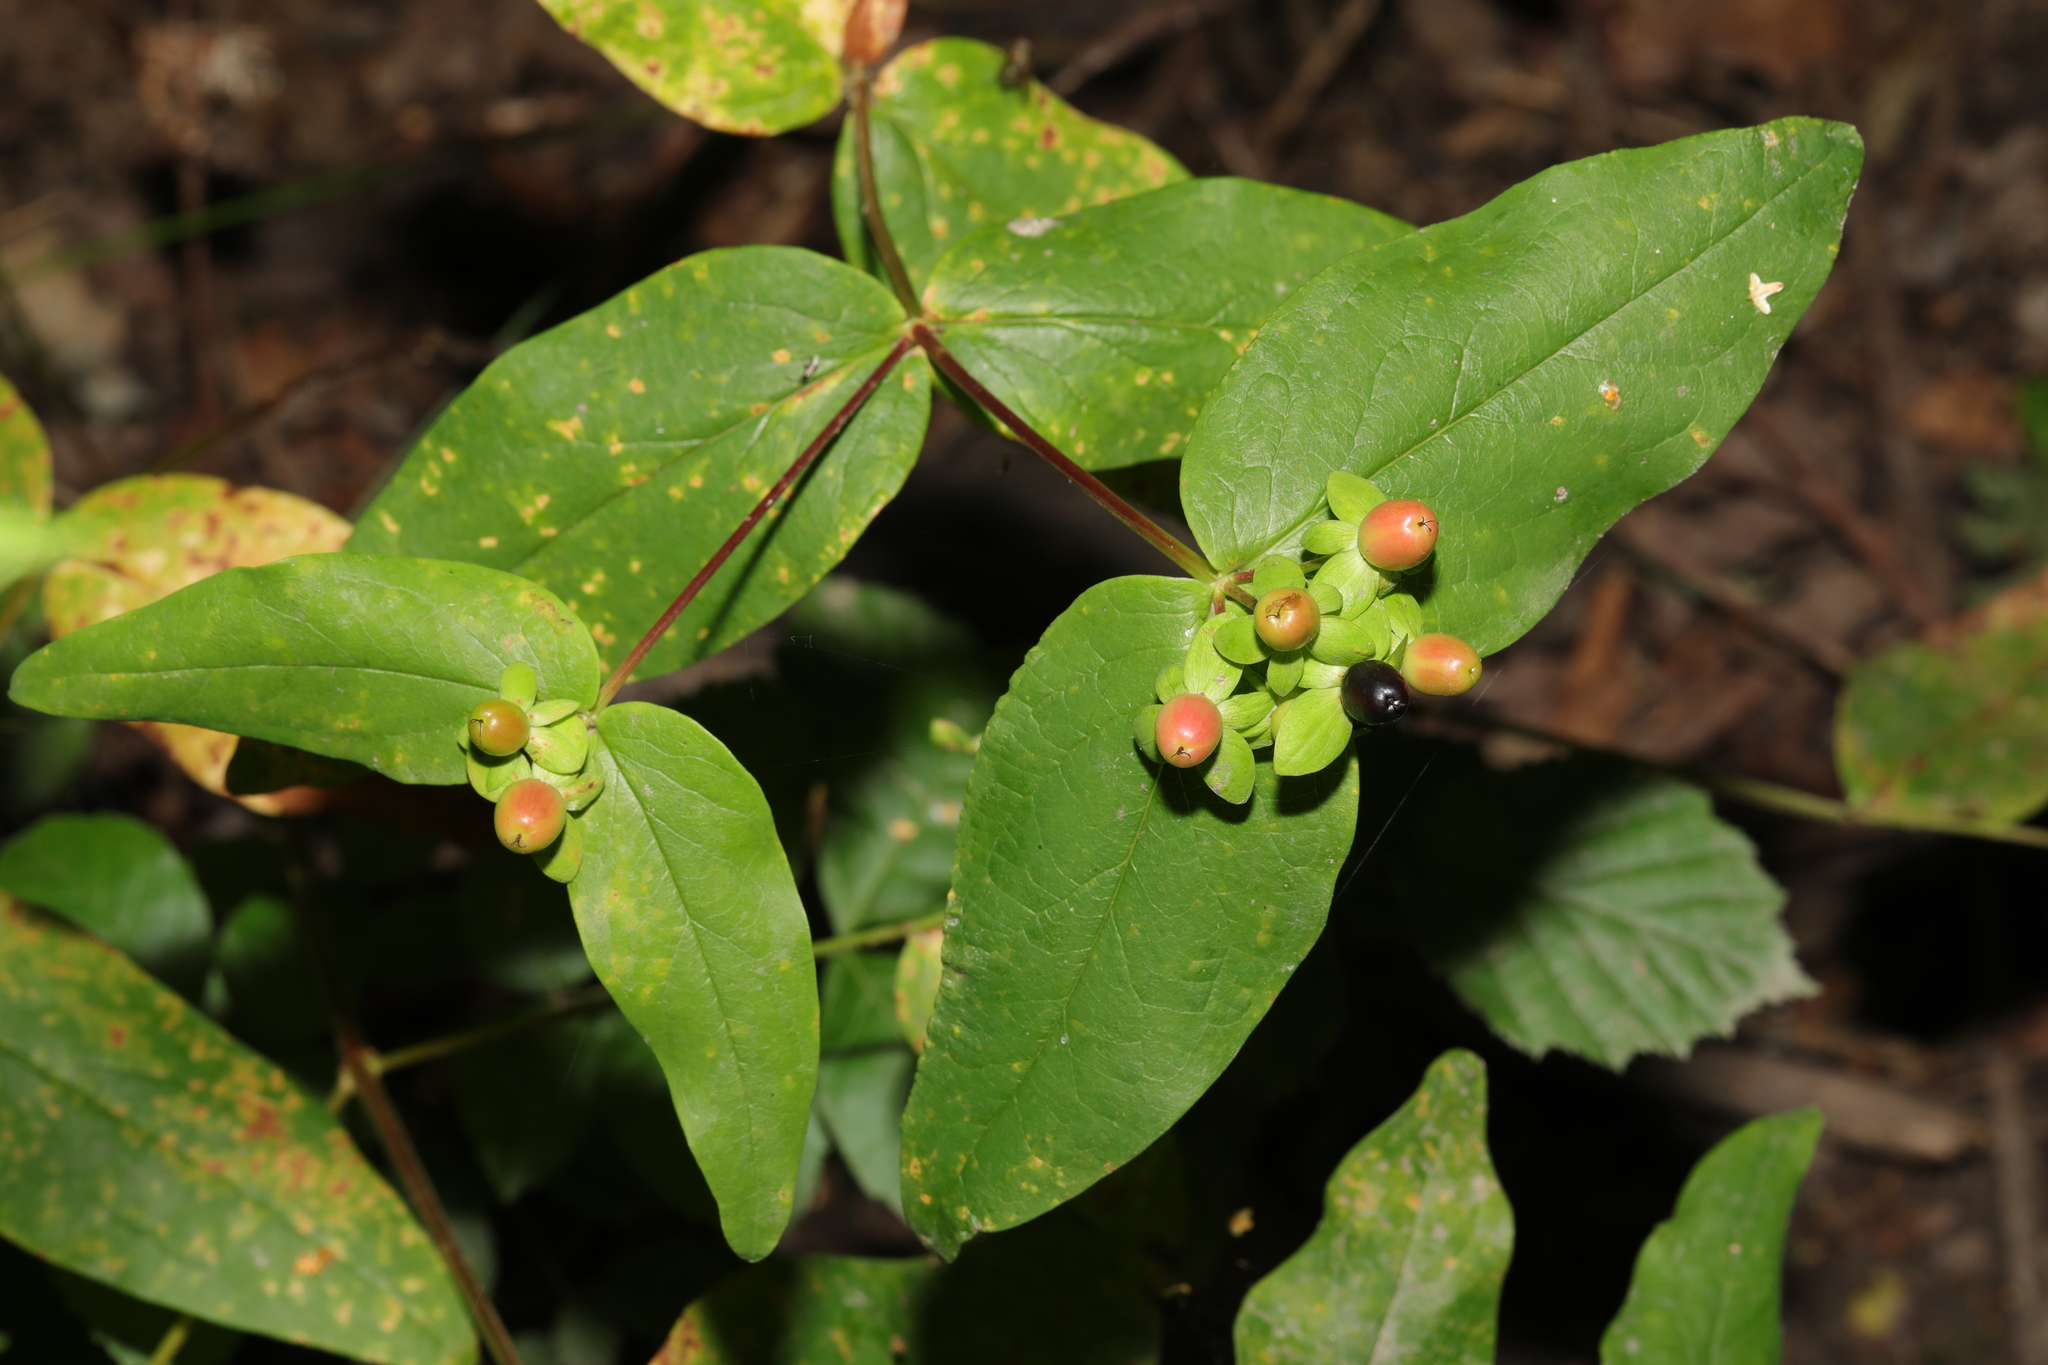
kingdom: Plantae
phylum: Tracheophyta
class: Magnoliopsida
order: Malpighiales
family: Hypericaceae
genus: Hypericum
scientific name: Hypericum androsaemum
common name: Sweet-amber
